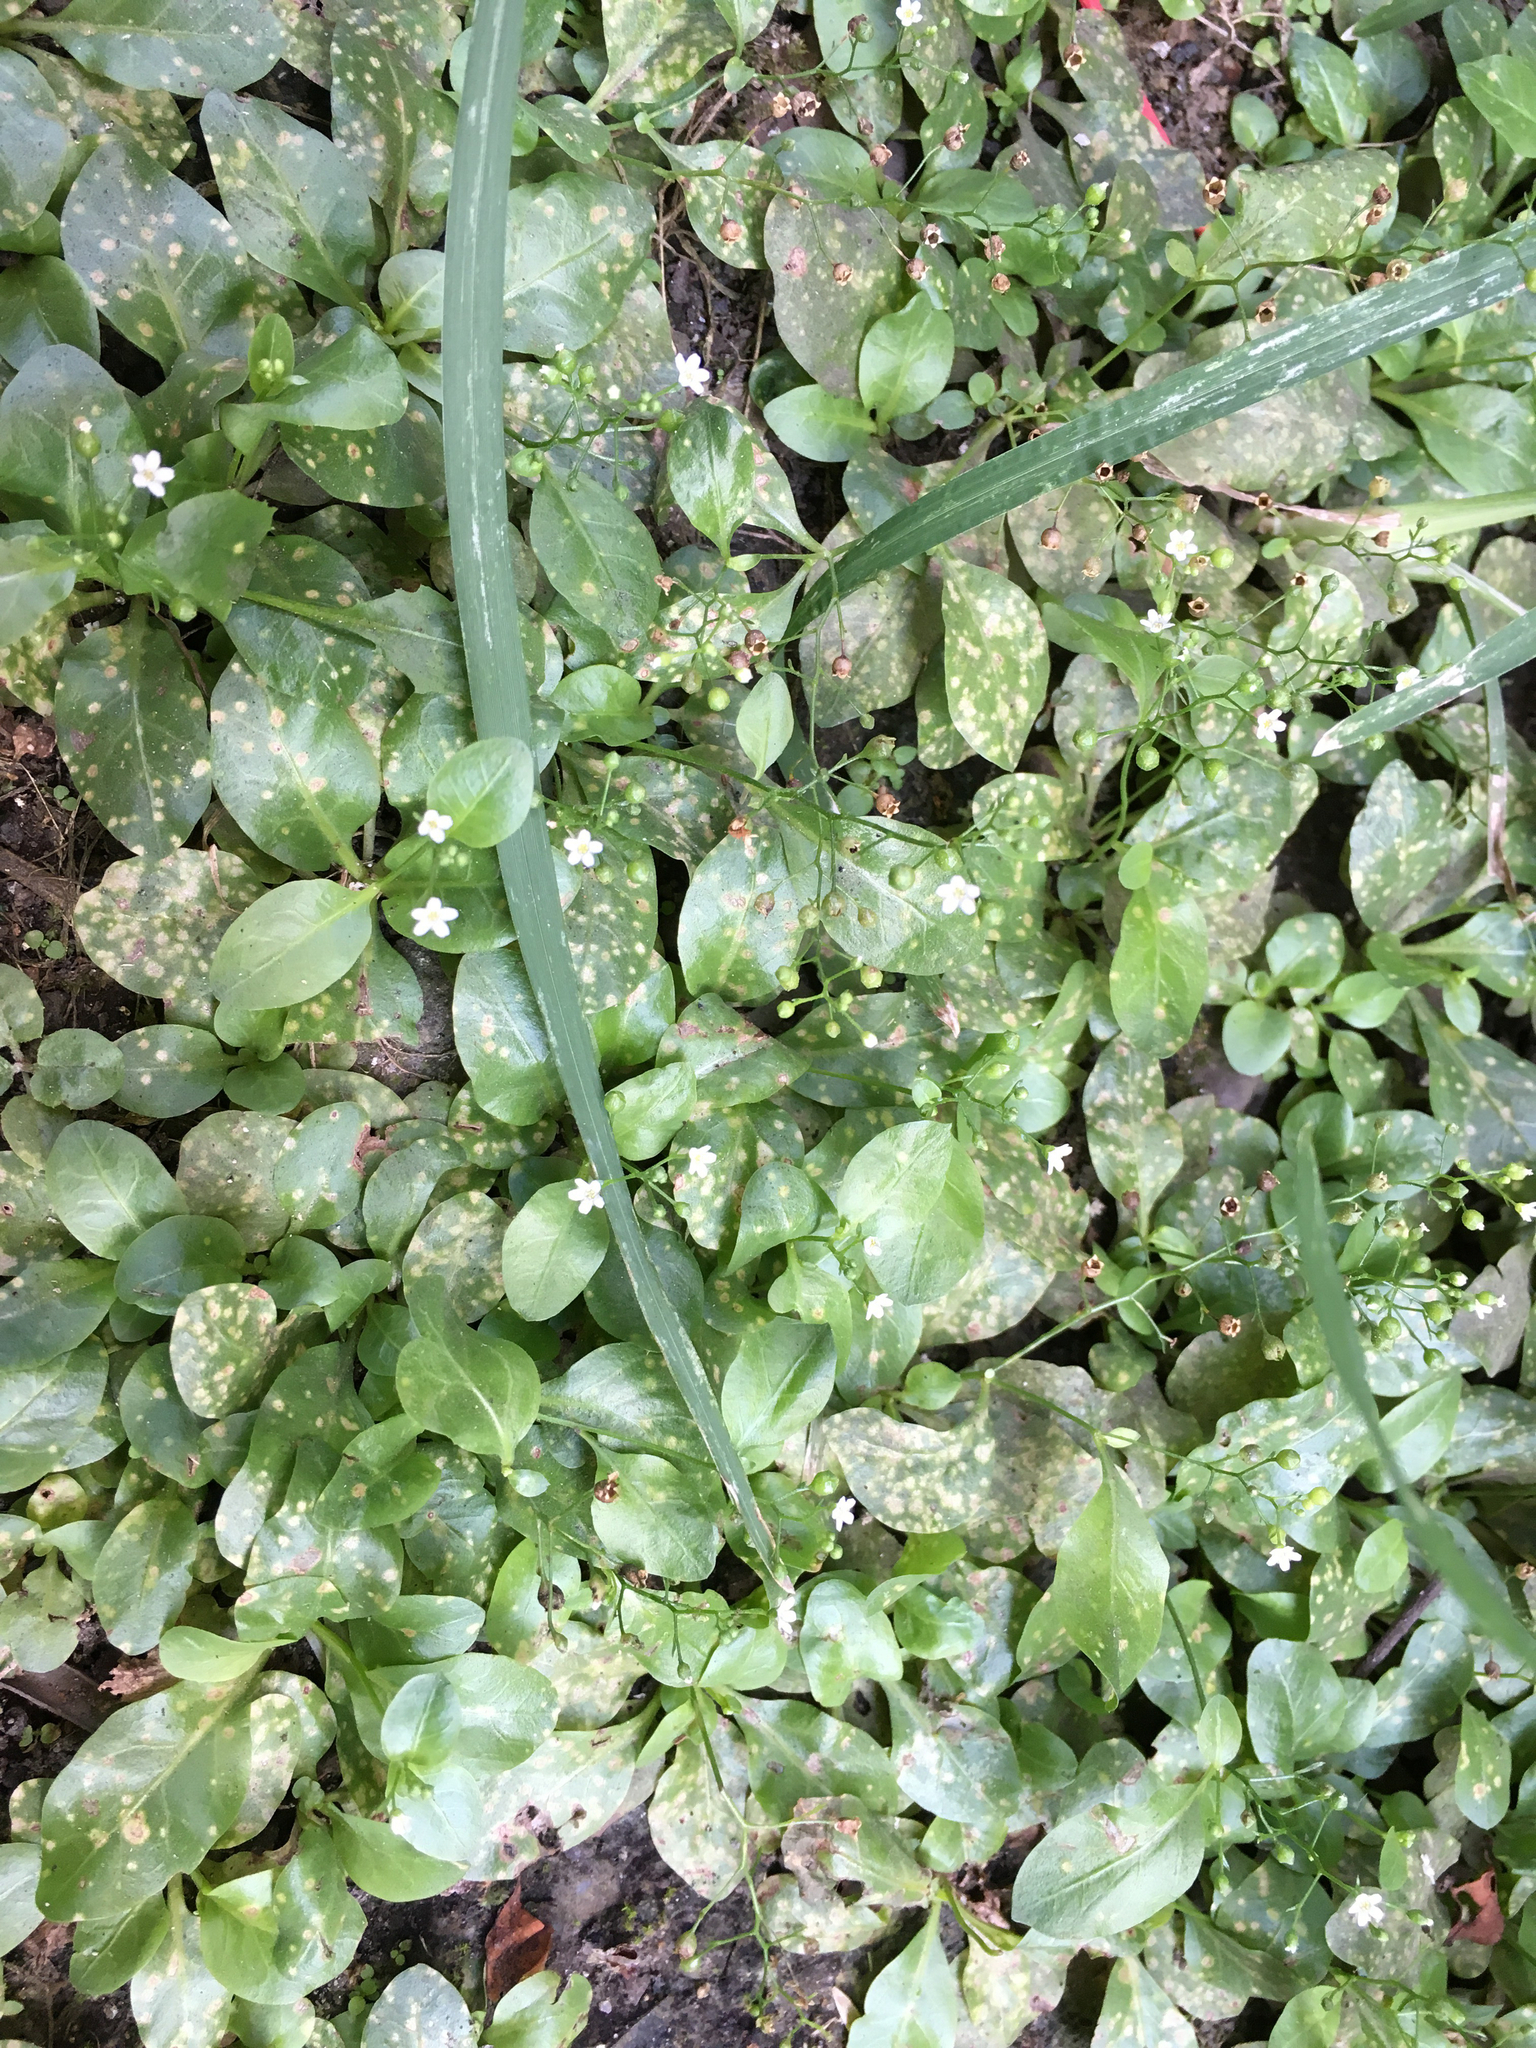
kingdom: Plantae
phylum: Tracheophyta
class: Magnoliopsida
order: Ericales
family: Primulaceae
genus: Samolus
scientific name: Samolus parviflorus
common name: False water pimpernel
